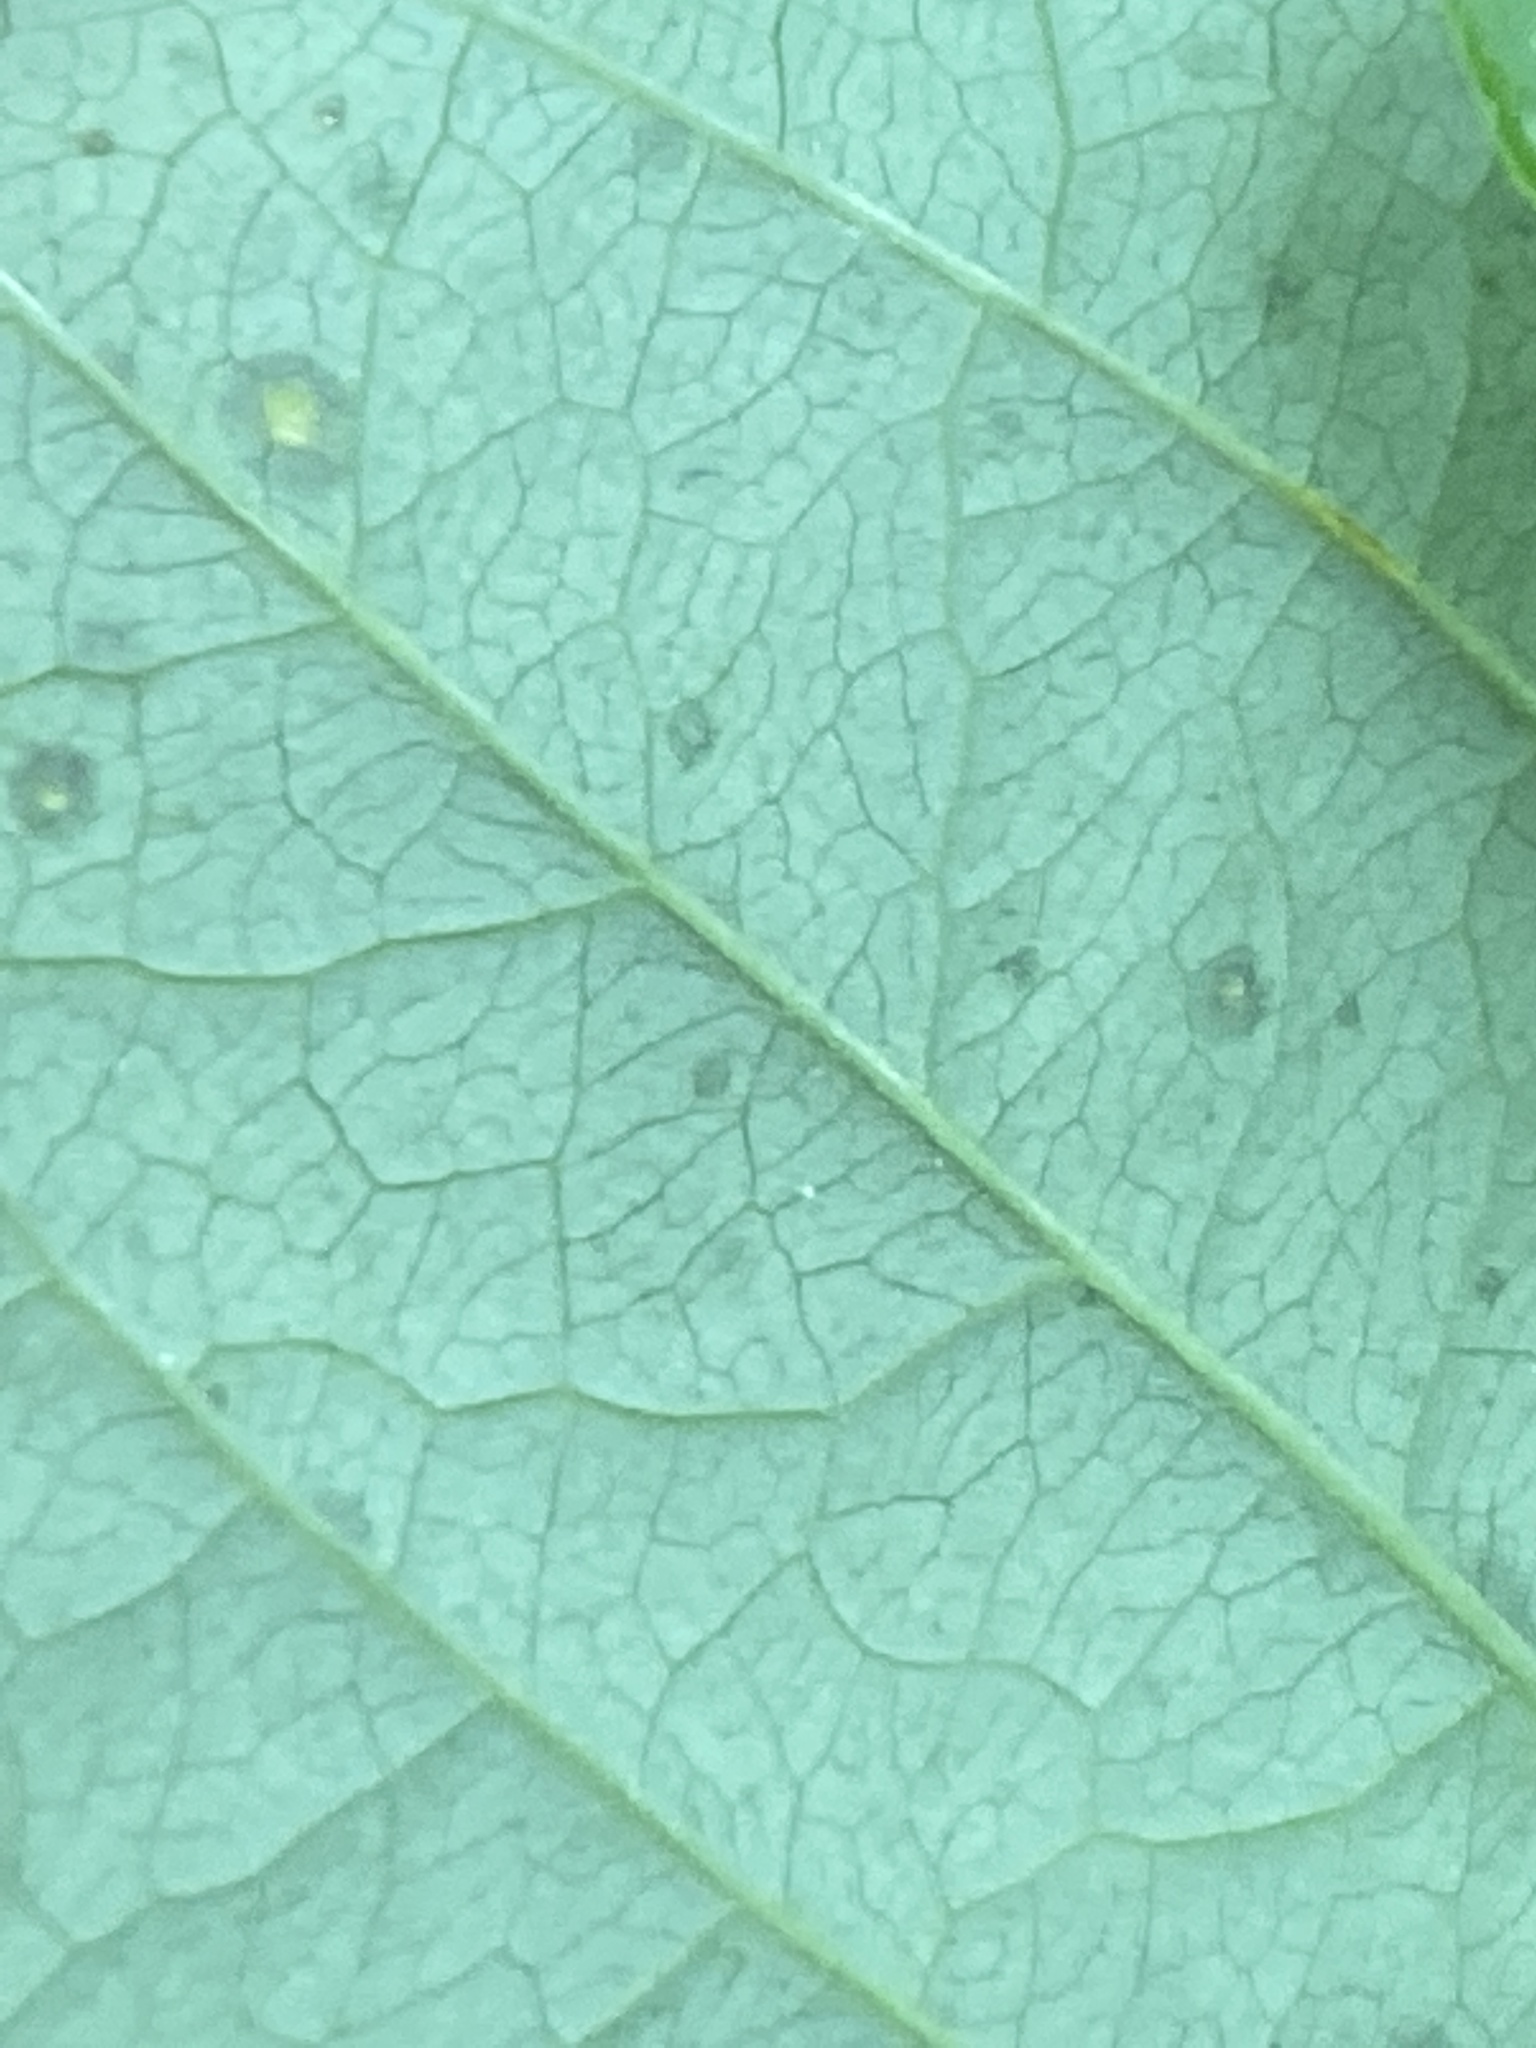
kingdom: Plantae
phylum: Tracheophyta
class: Liliopsida
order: Liliales
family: Smilacaceae
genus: Smilax
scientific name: Smilax herbacea
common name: Jacob's-ladder
